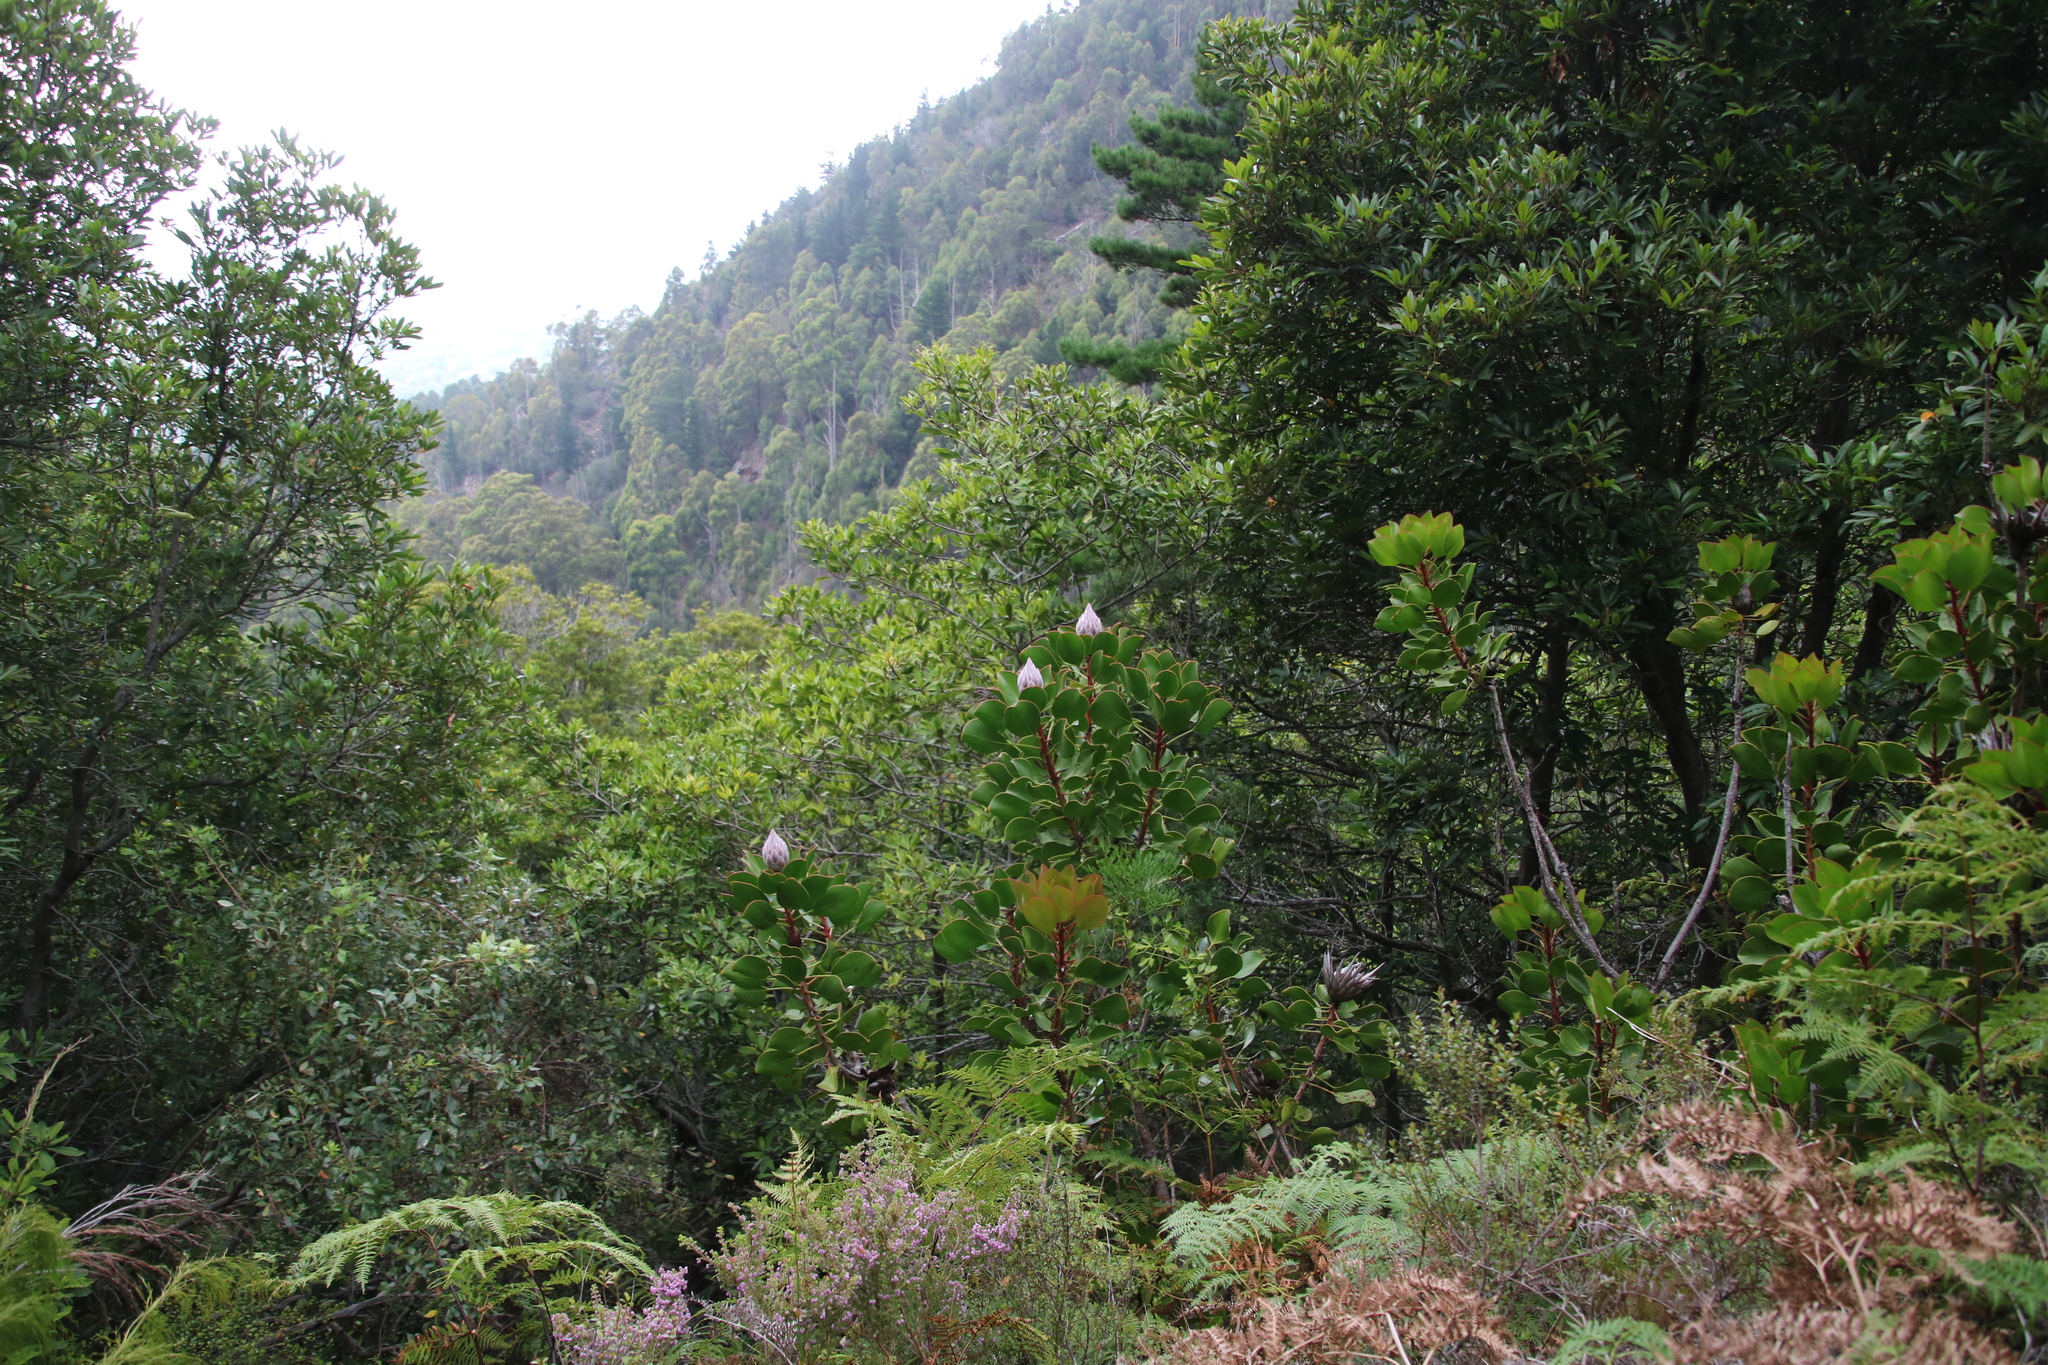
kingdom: Plantae
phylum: Tracheophyta
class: Magnoliopsida
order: Proteales
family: Proteaceae
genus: Protea
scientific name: Protea cynaroides
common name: King protea
